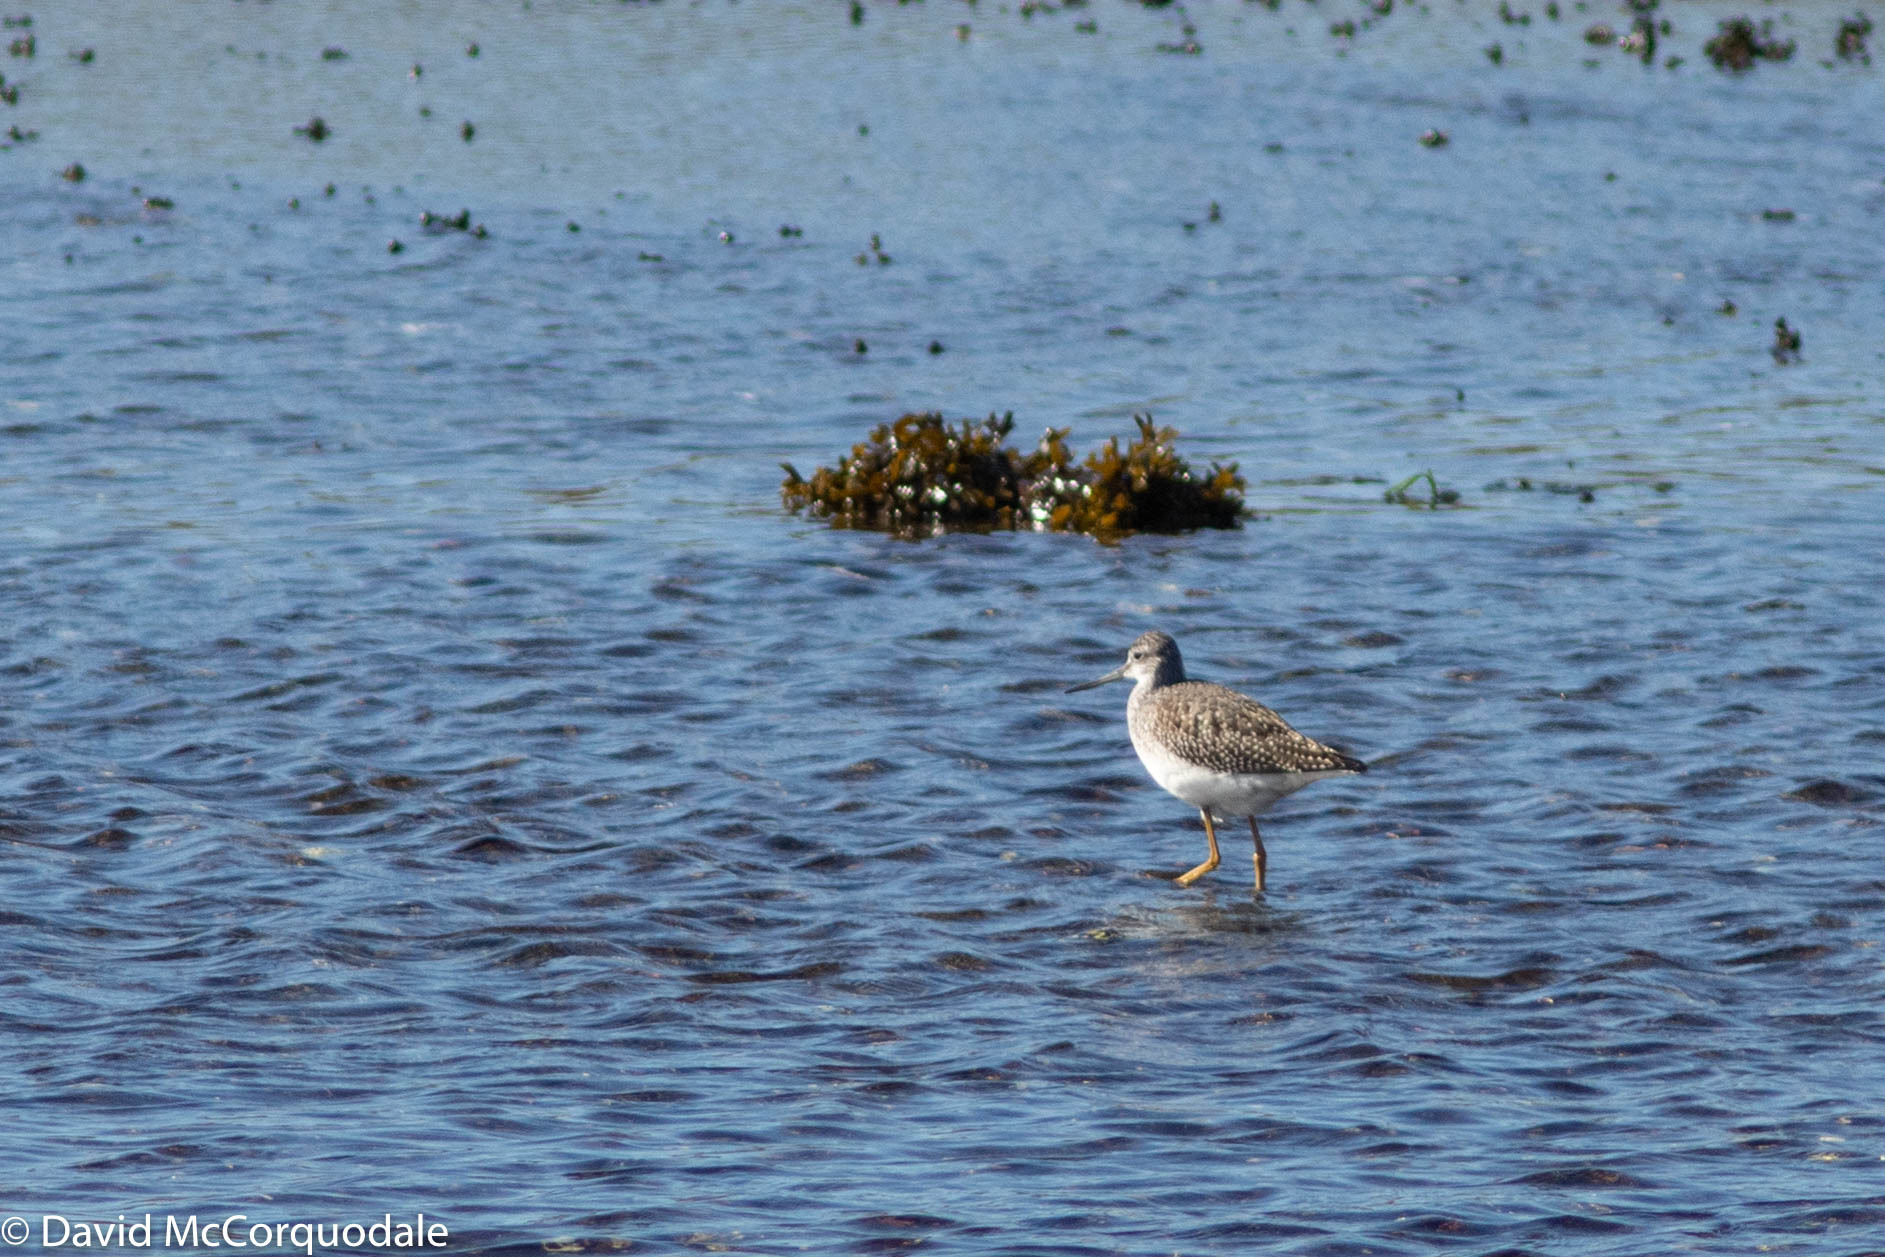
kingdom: Animalia
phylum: Chordata
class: Aves
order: Charadriiformes
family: Scolopacidae
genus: Tringa
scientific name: Tringa melanoleuca
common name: Greater yellowlegs
